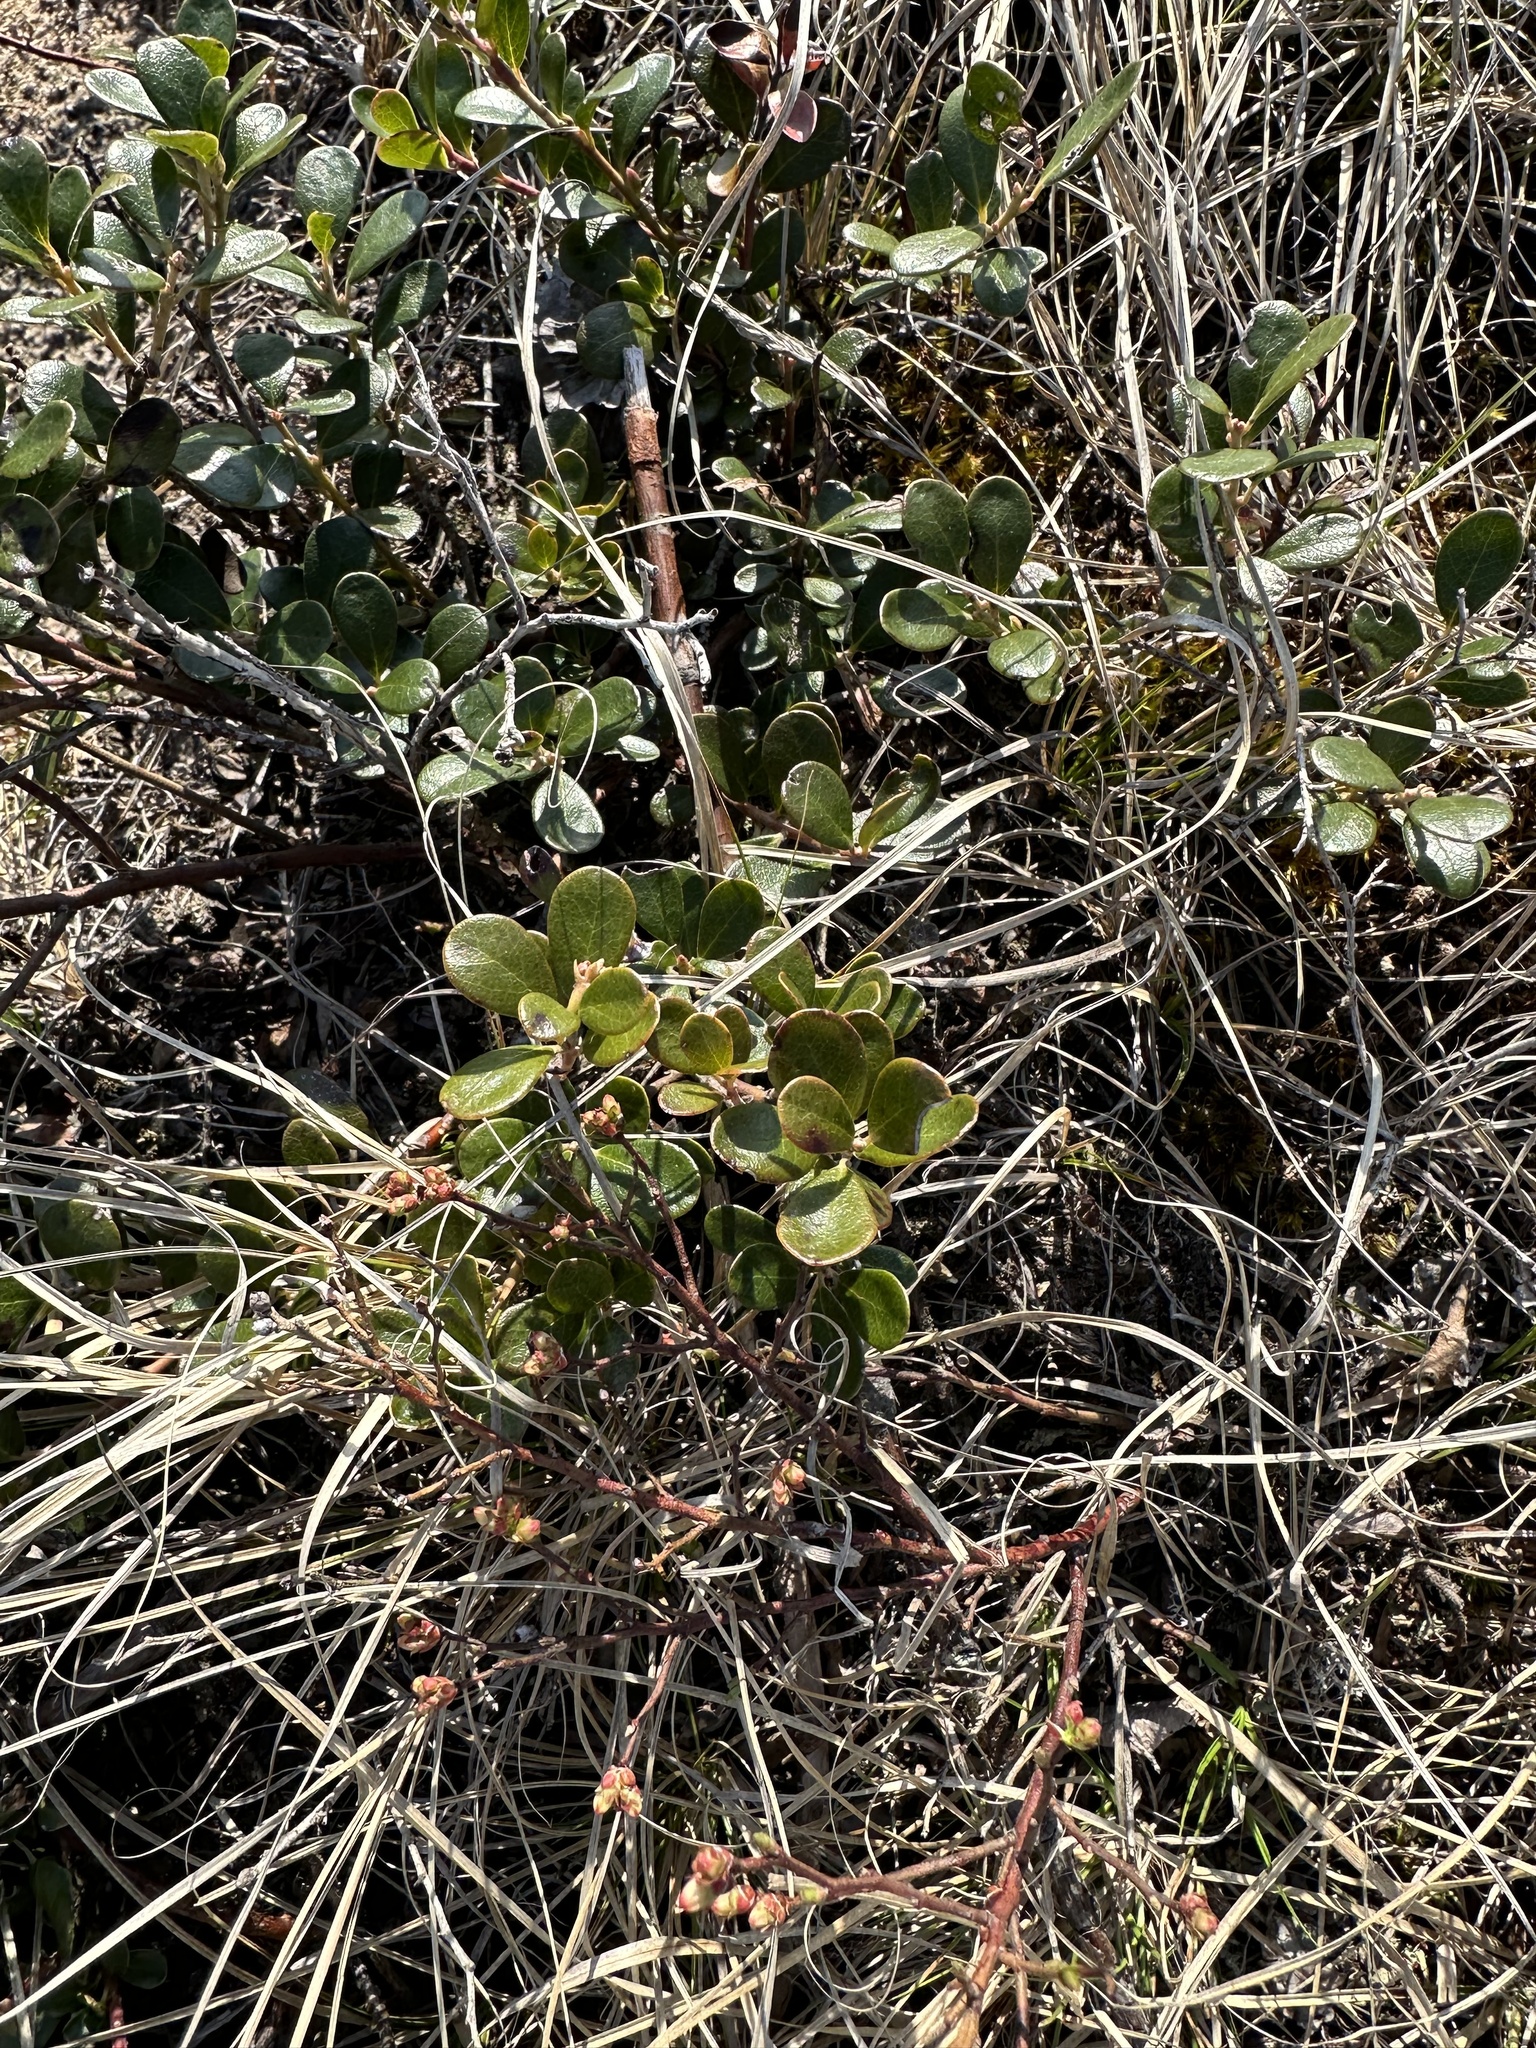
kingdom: Plantae
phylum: Tracheophyta
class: Magnoliopsida
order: Ericales
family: Ericaceae
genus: Arctostaphylos
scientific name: Arctostaphylos uva-ursi
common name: Bearberry
